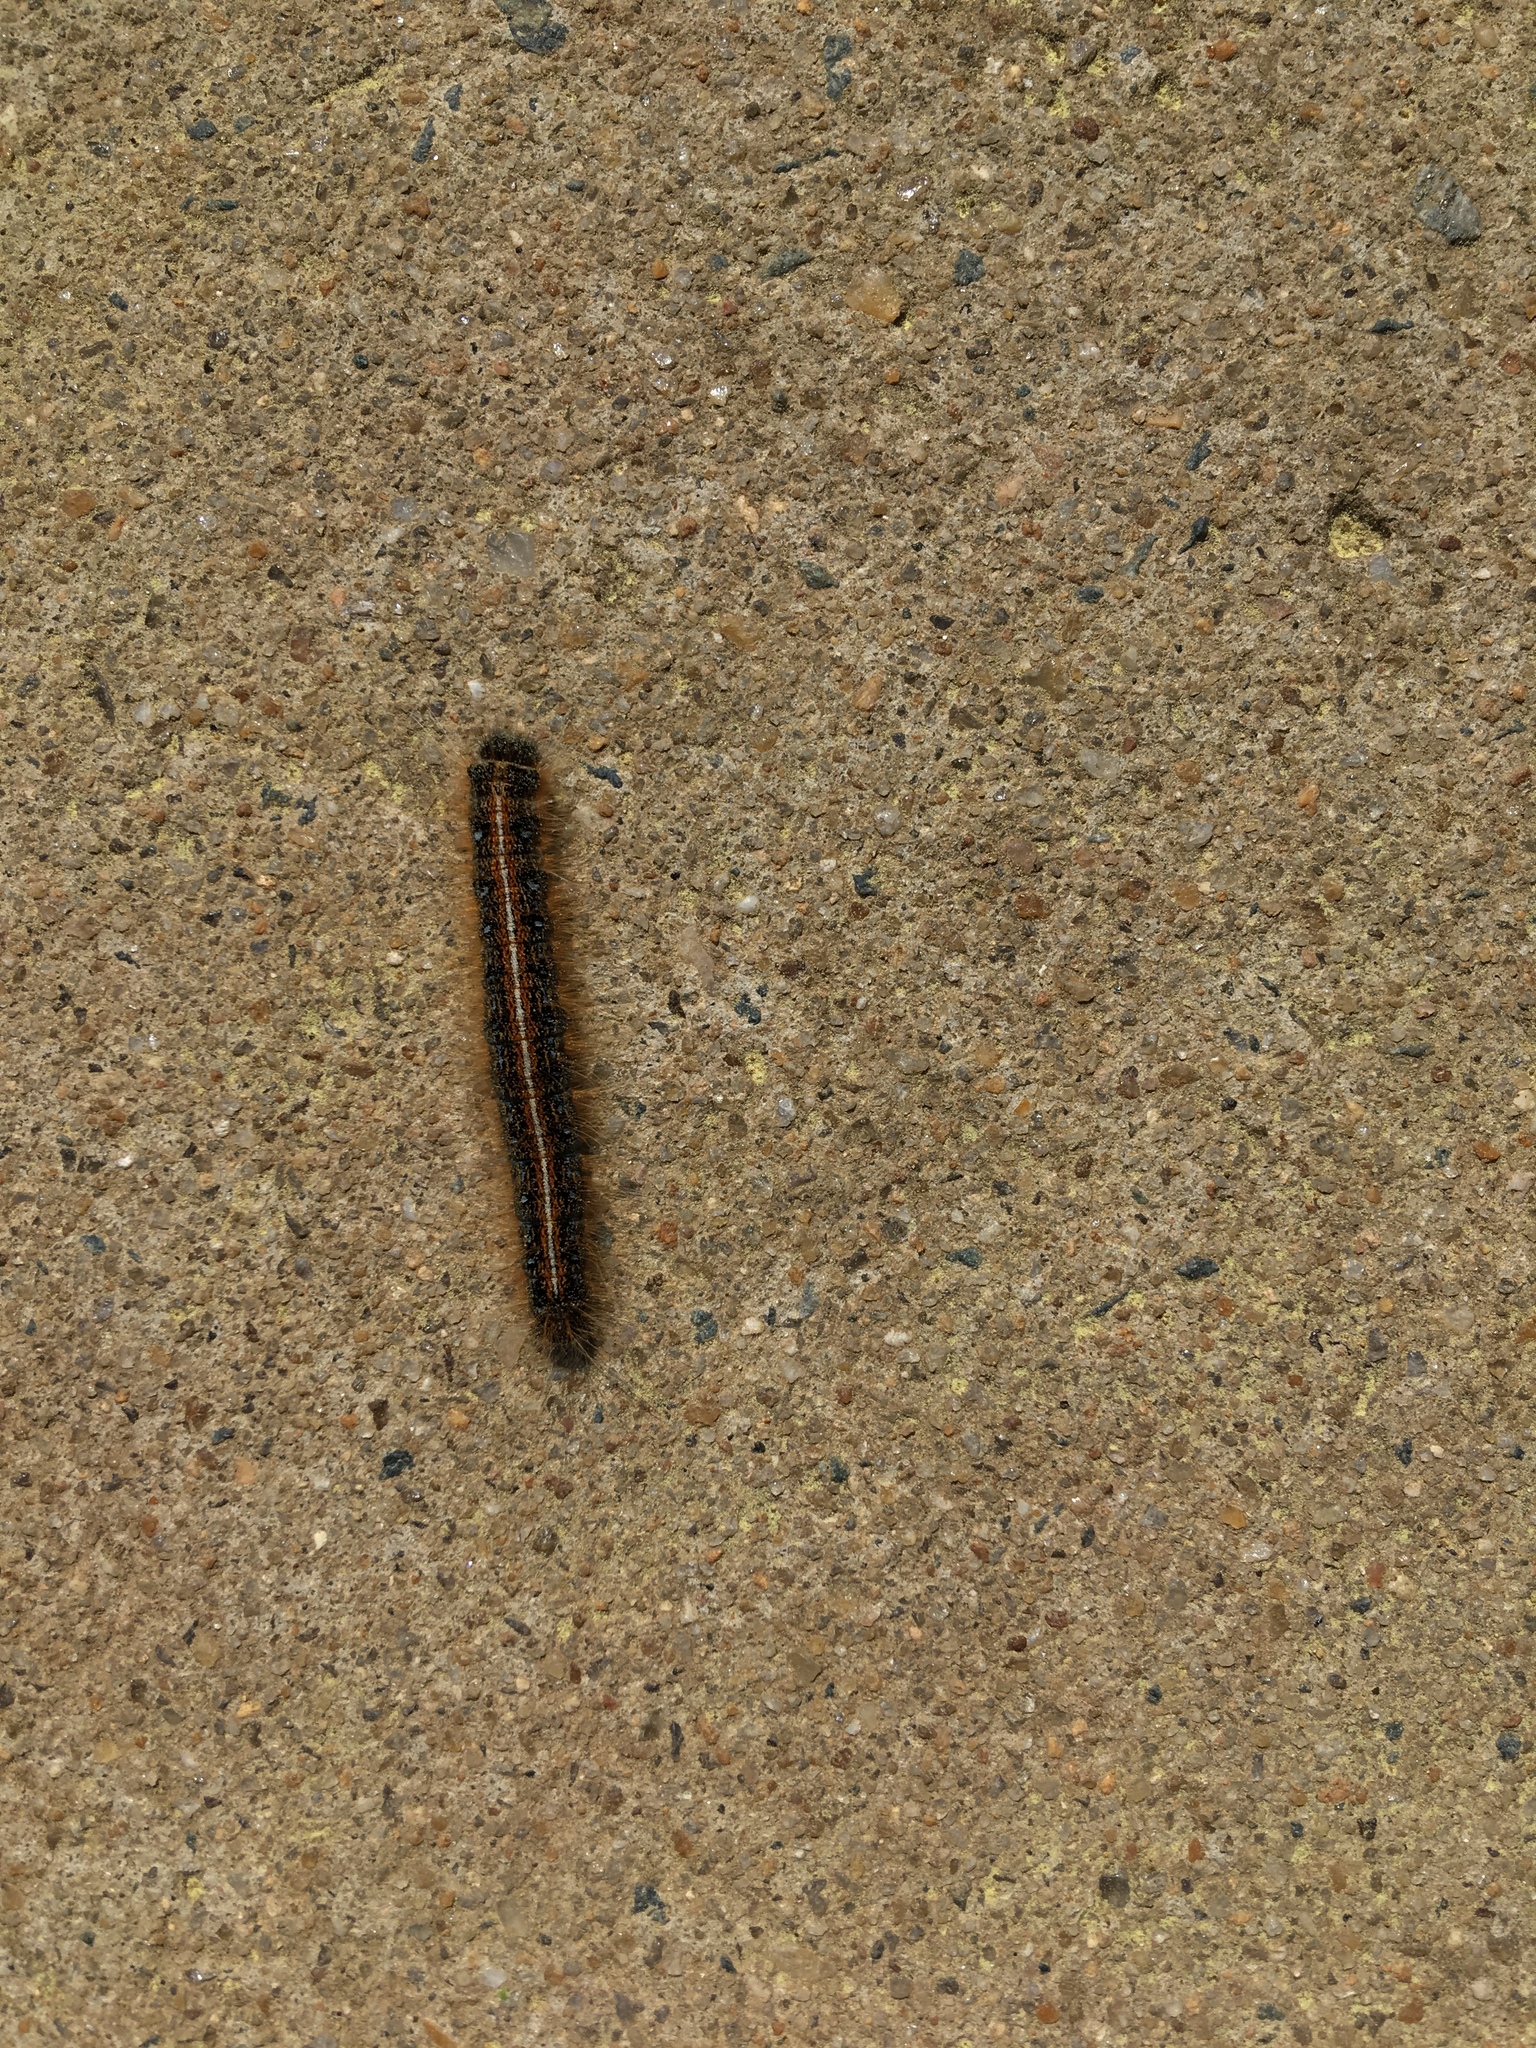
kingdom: Animalia
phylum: Arthropoda
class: Insecta
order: Lepidoptera
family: Lasiocampidae
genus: Malacosoma
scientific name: Malacosoma americana
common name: Eastern tent caterpillar moth
